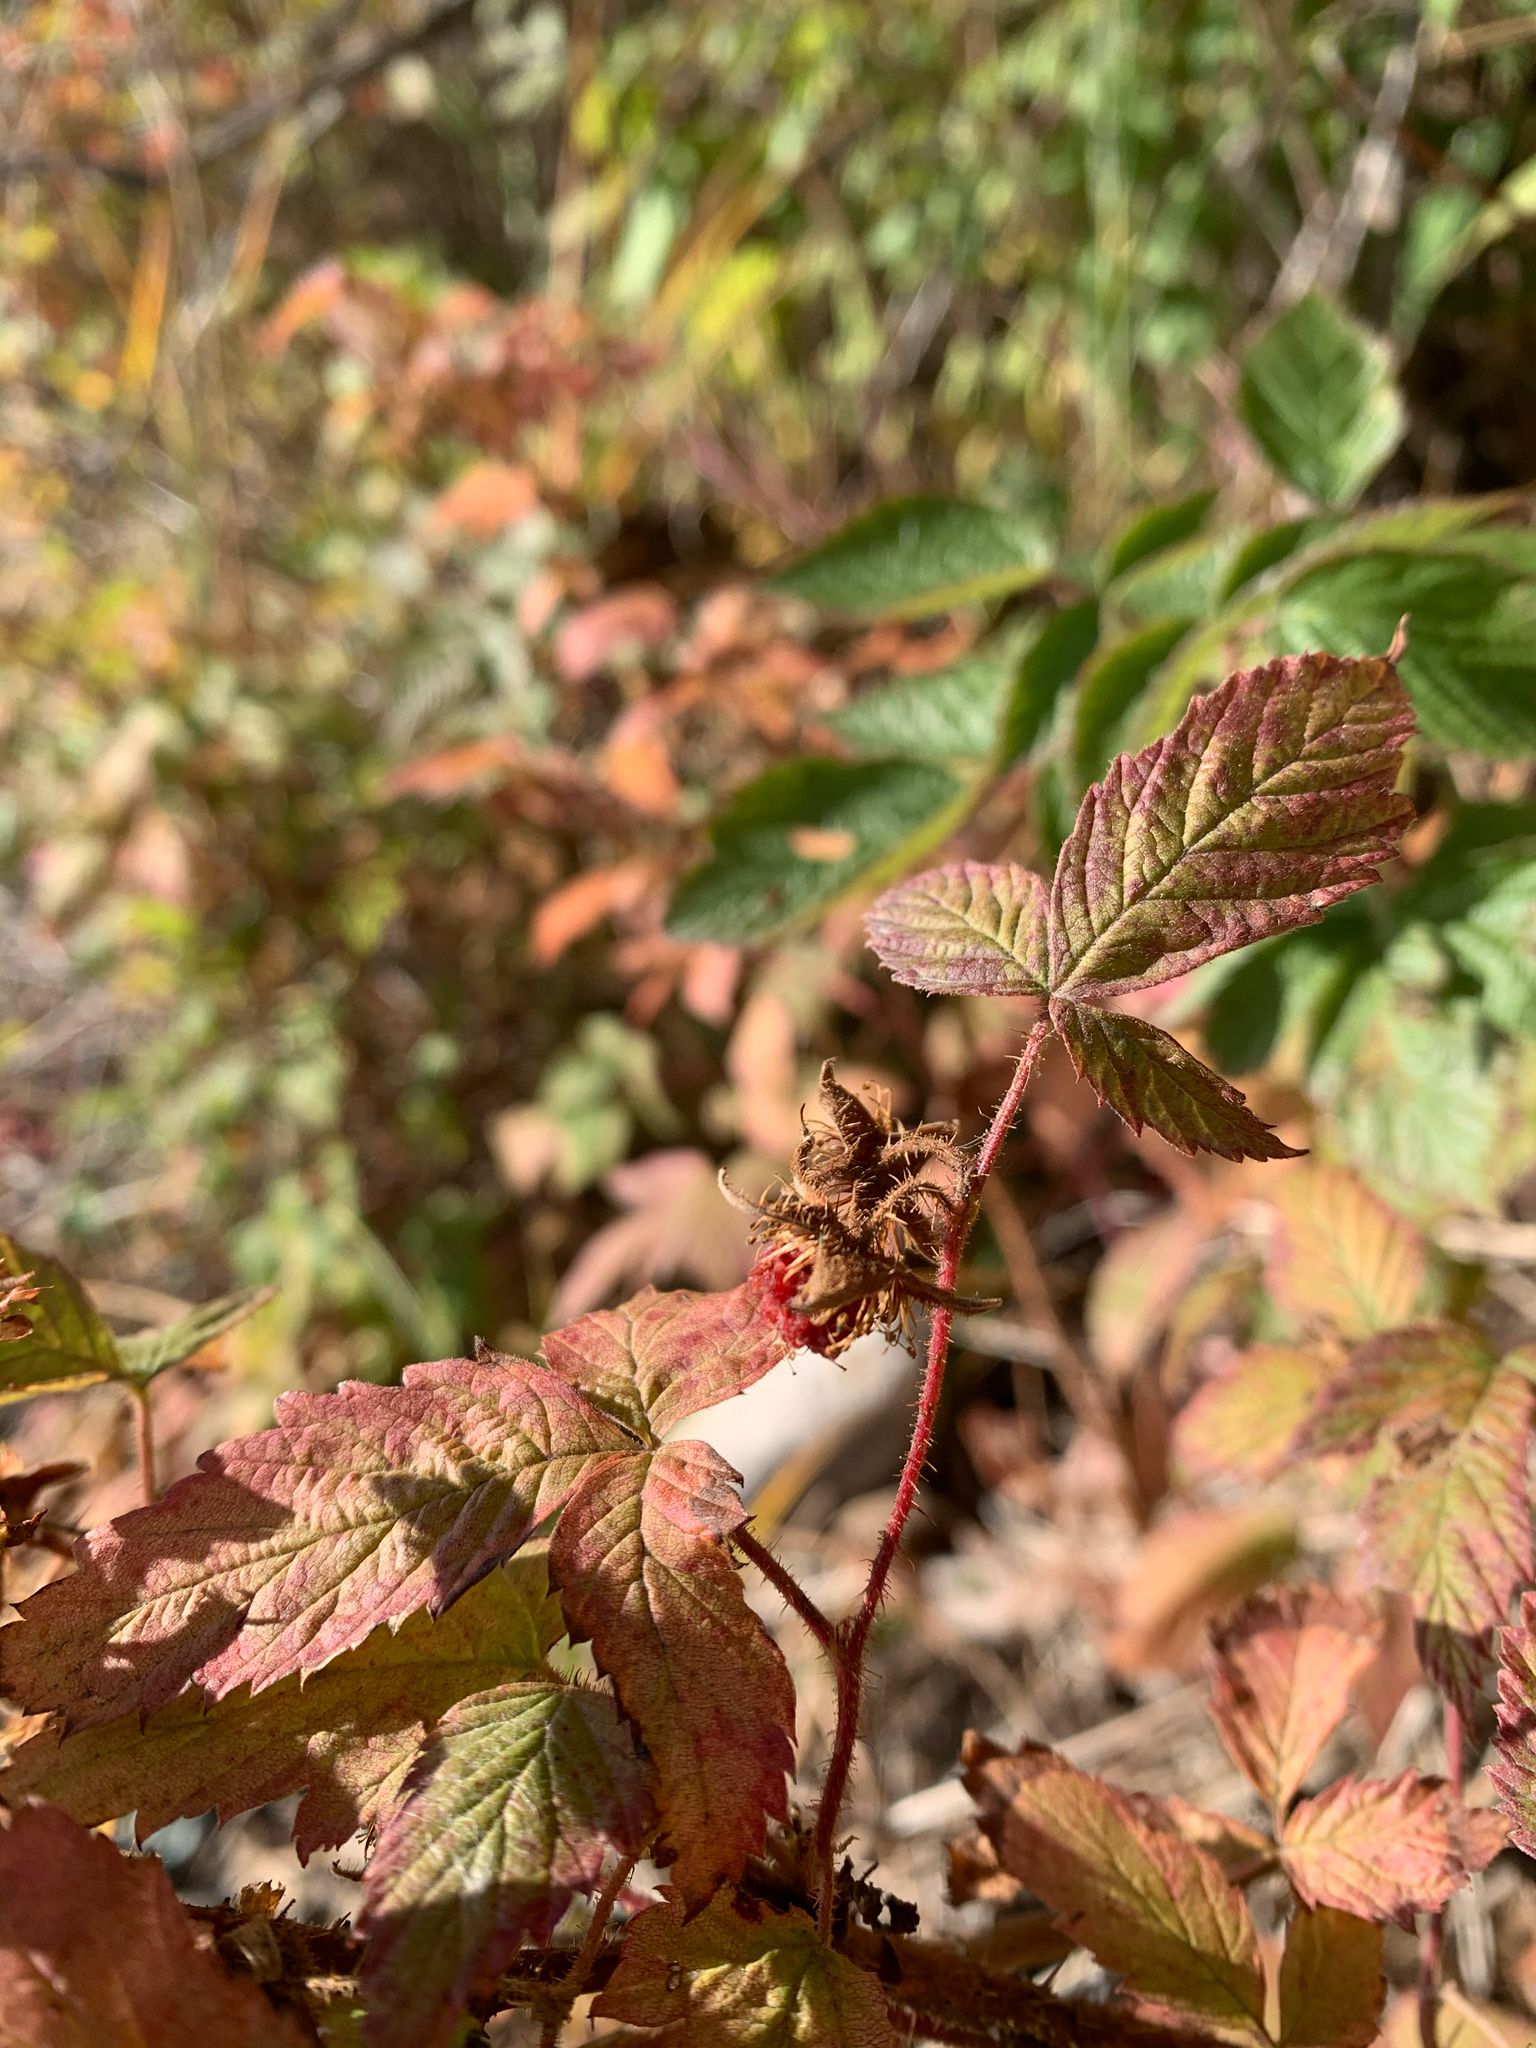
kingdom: Plantae
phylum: Tracheophyta
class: Magnoliopsida
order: Rosales
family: Rosaceae
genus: Rubus
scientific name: Rubus idaeus
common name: Raspberry
